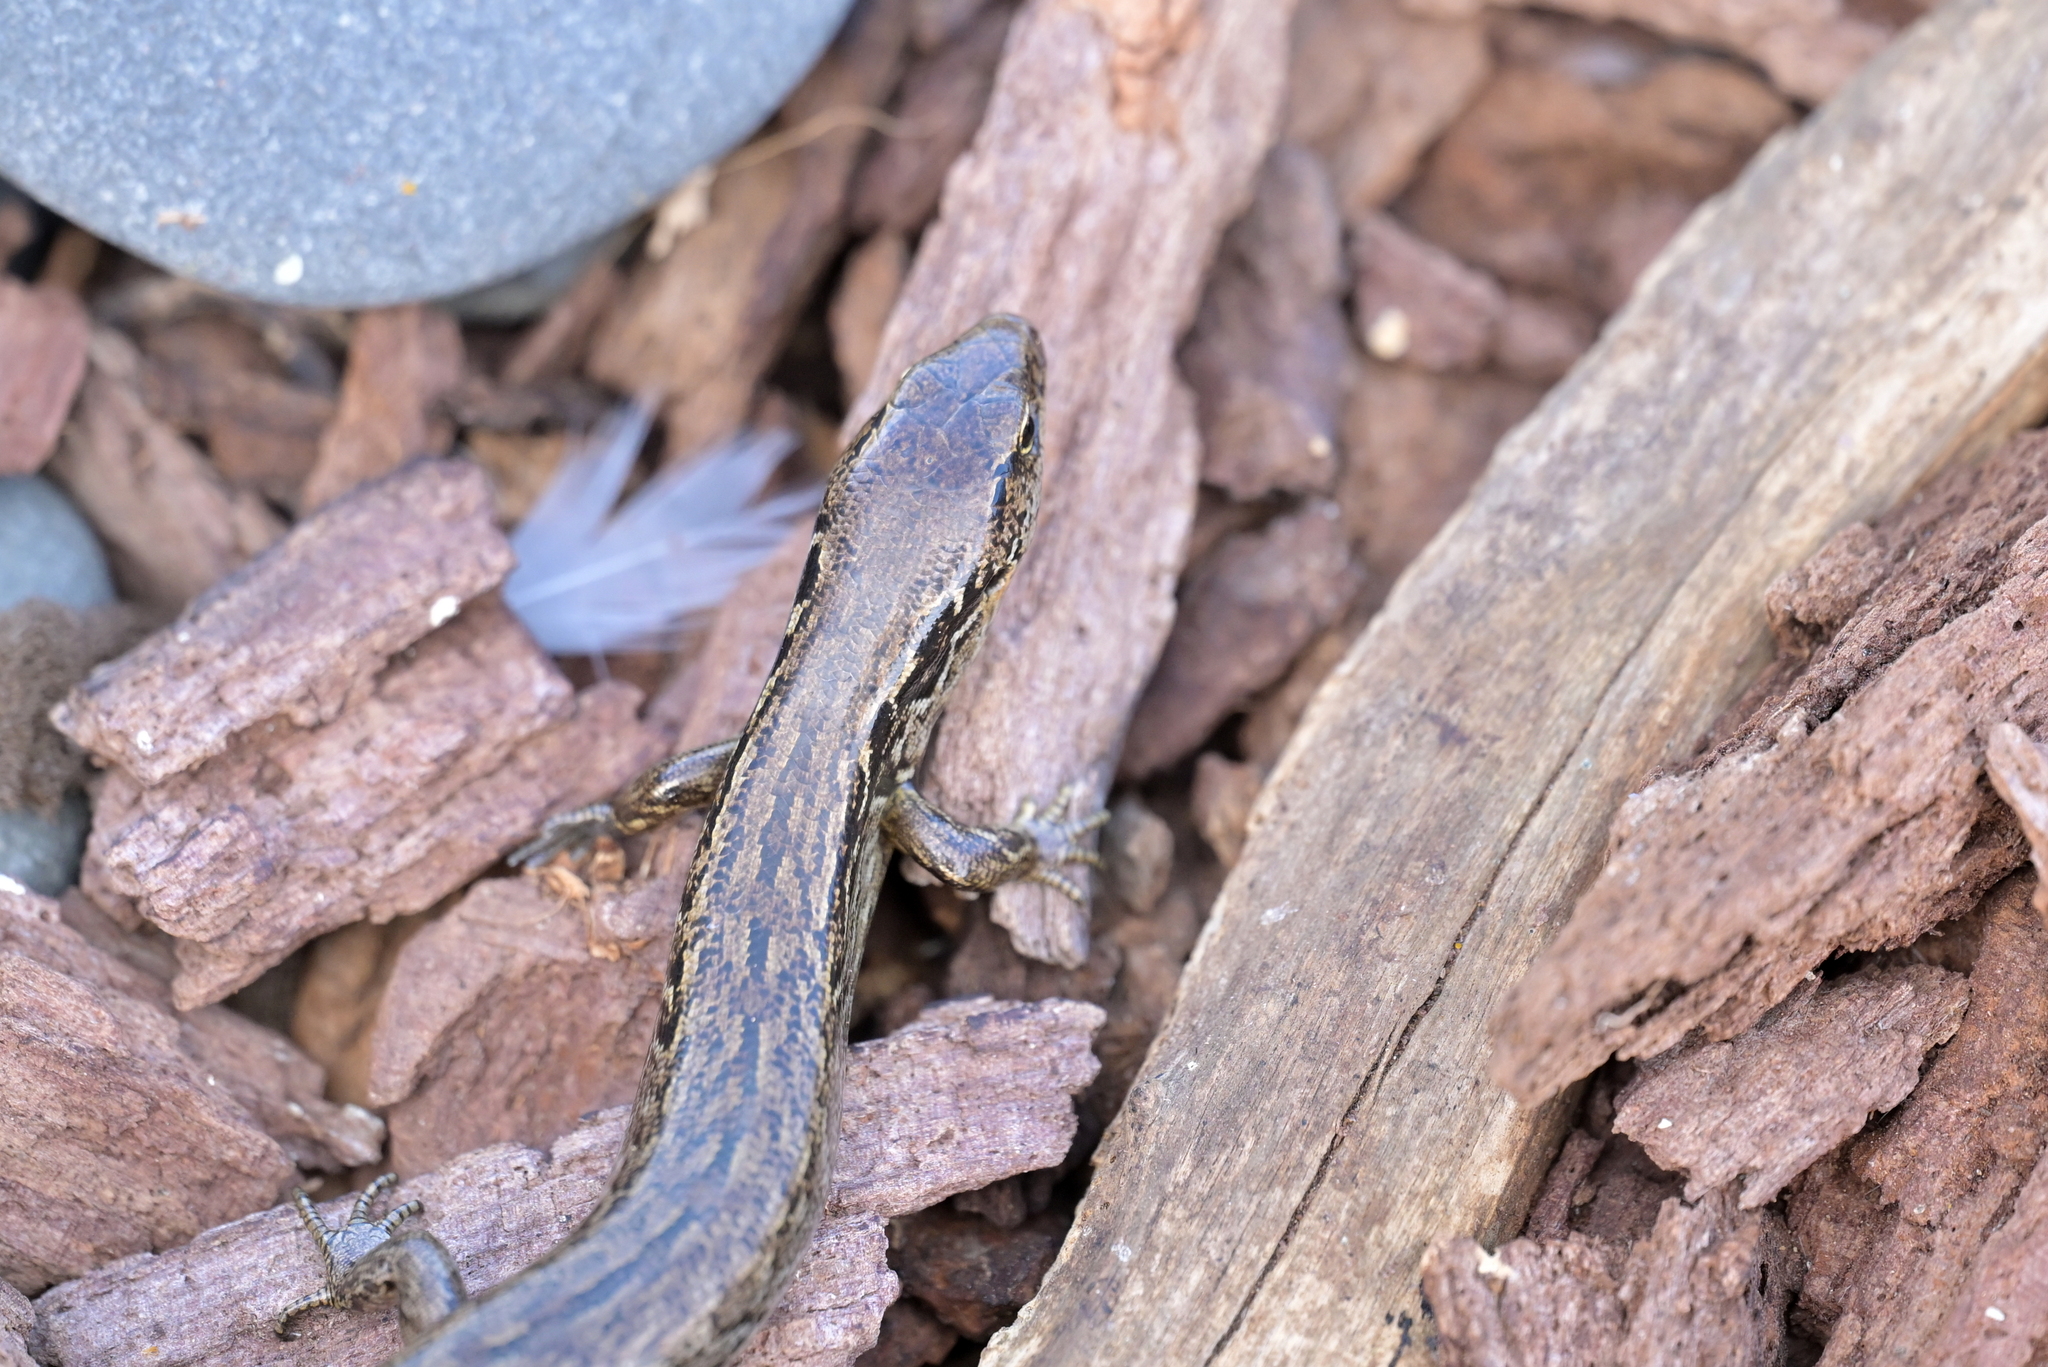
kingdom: Animalia
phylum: Chordata
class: Squamata
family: Scincidae
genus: Oligosoma
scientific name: Oligosoma macgregori
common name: Macgregor's skink
